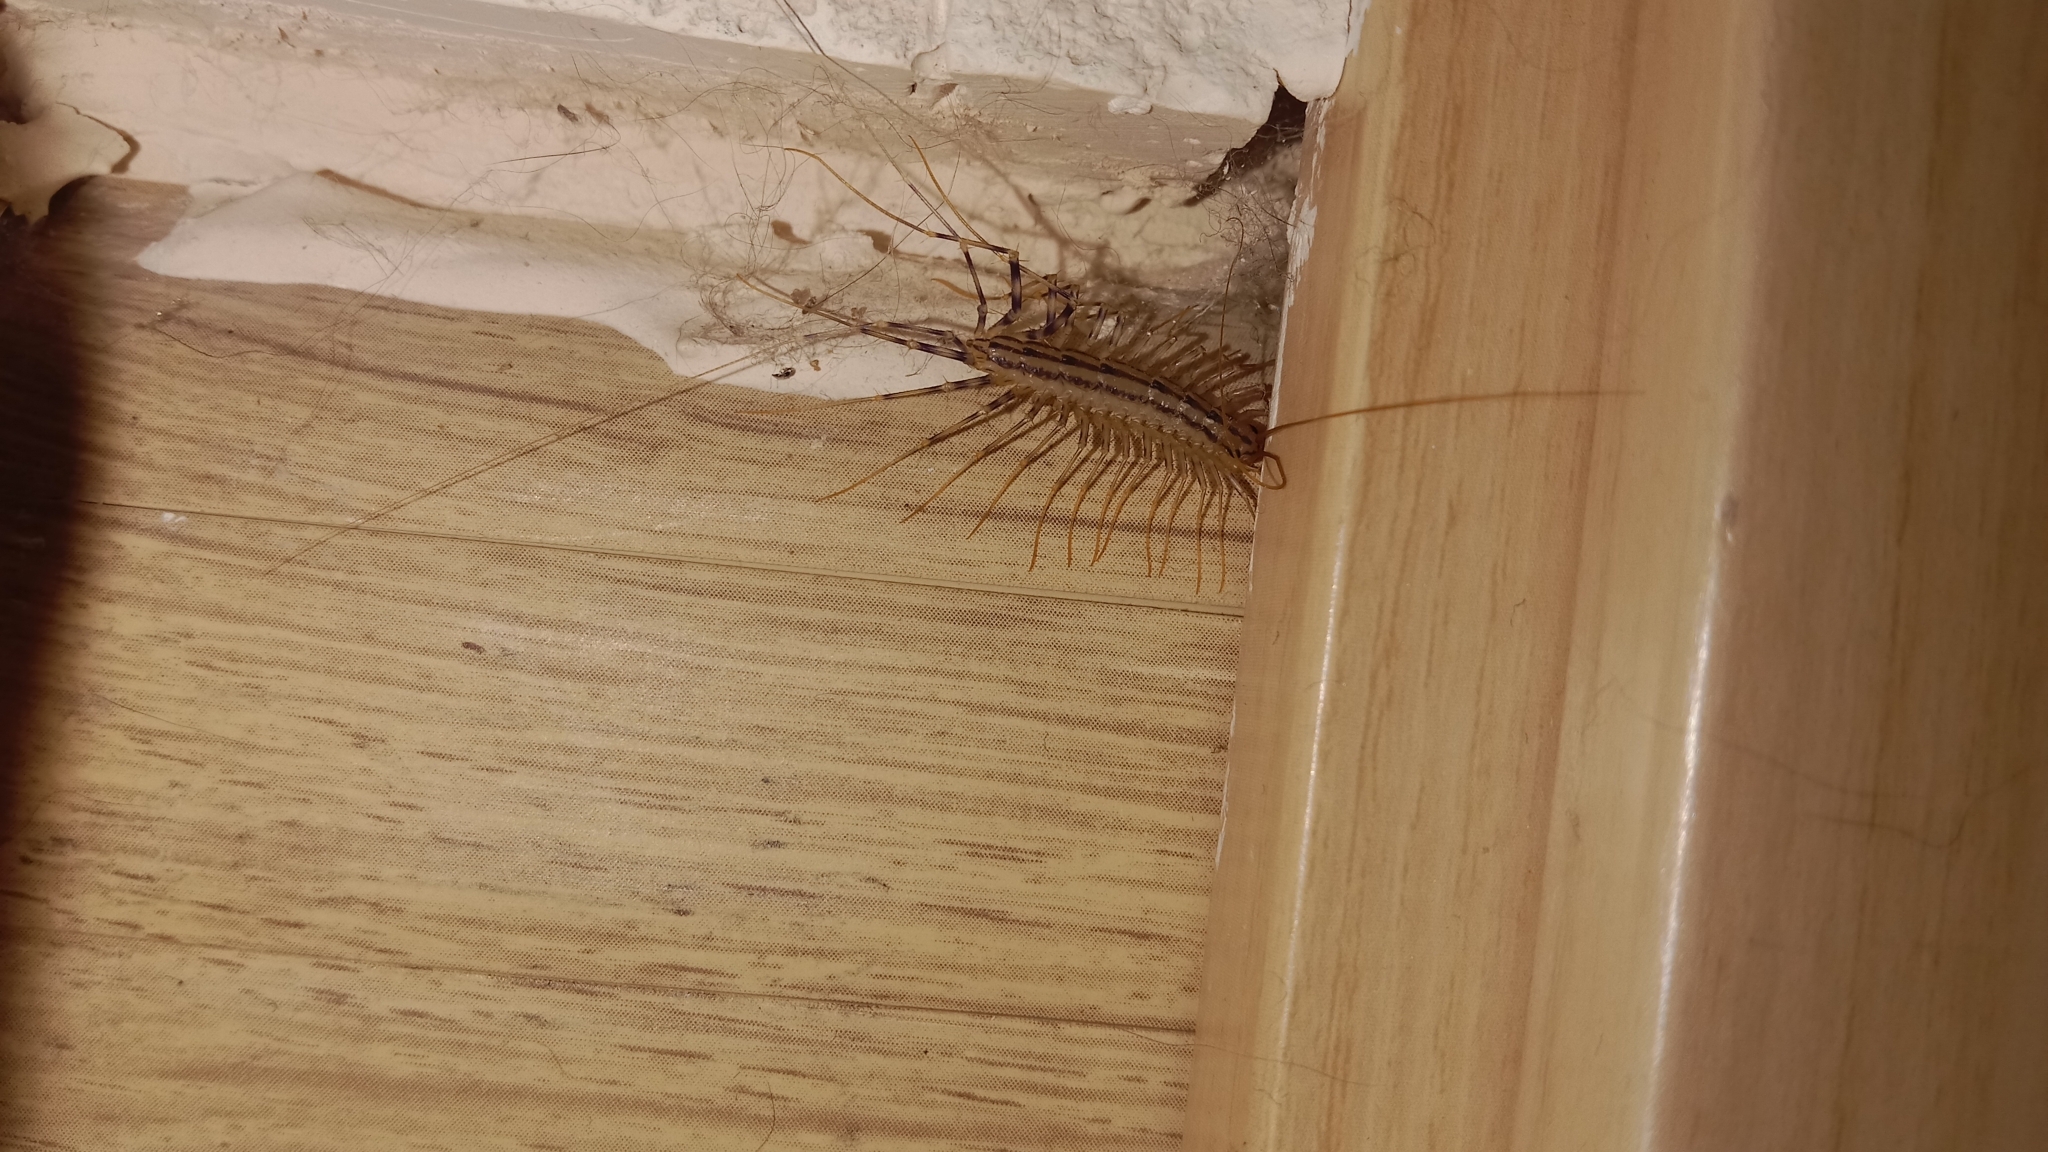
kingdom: Animalia
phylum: Arthropoda
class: Chilopoda
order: Scutigeromorpha
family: Scutigeridae
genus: Scutigera
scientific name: Scutigera coleoptrata
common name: House centipede
